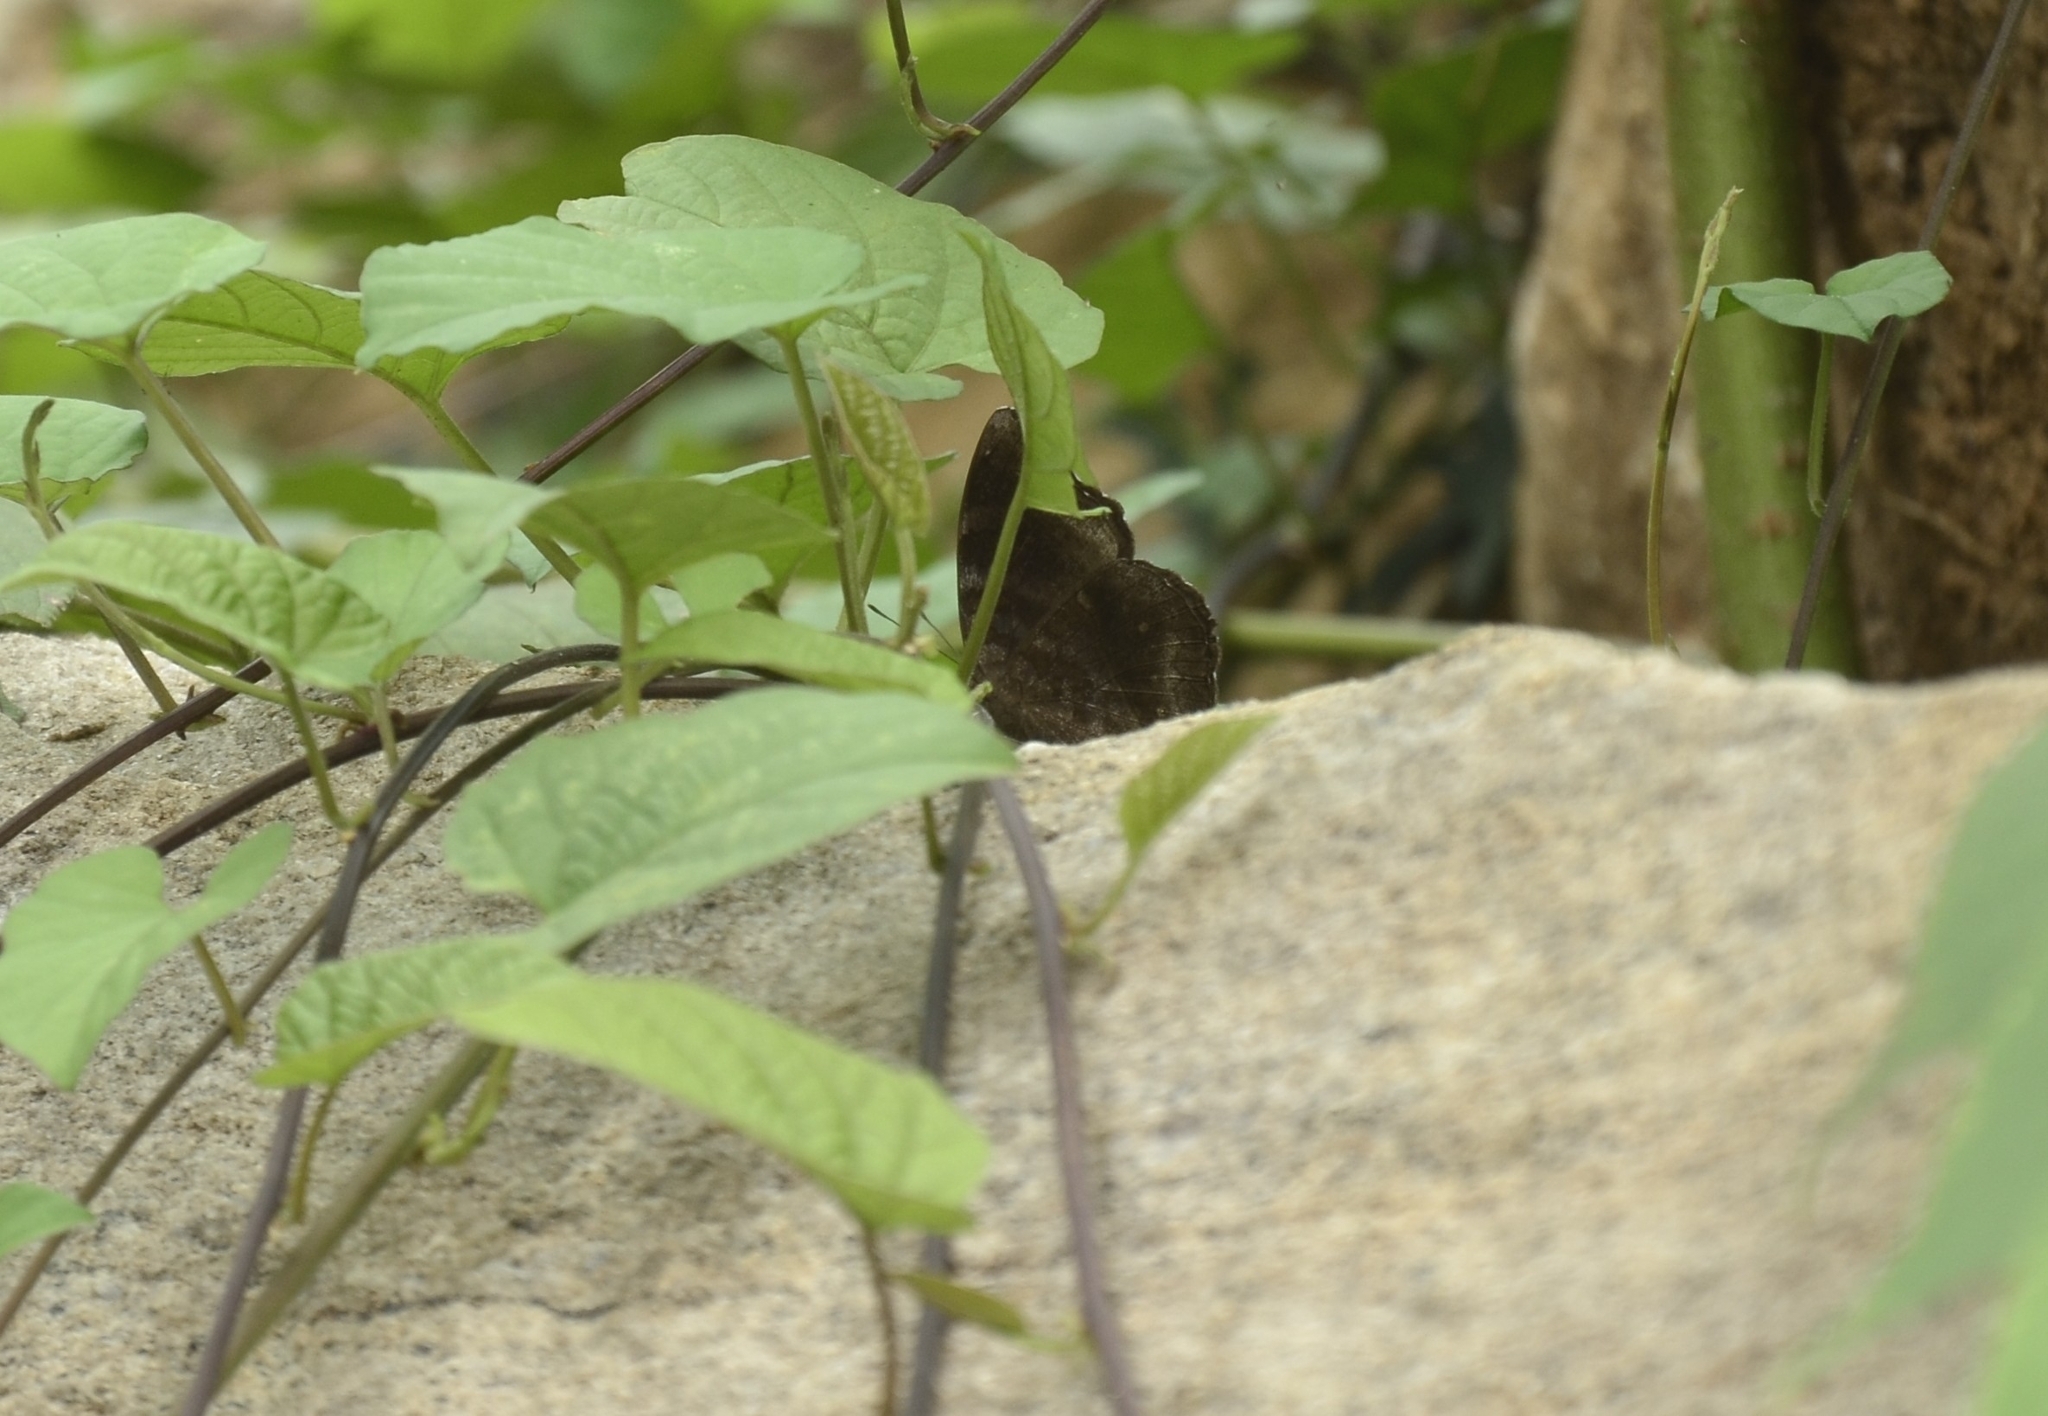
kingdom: Animalia
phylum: Arthropoda
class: Insecta
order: Lepidoptera
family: Nymphalidae
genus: Junonia
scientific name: Junonia iphita
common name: Chocolate pansy
